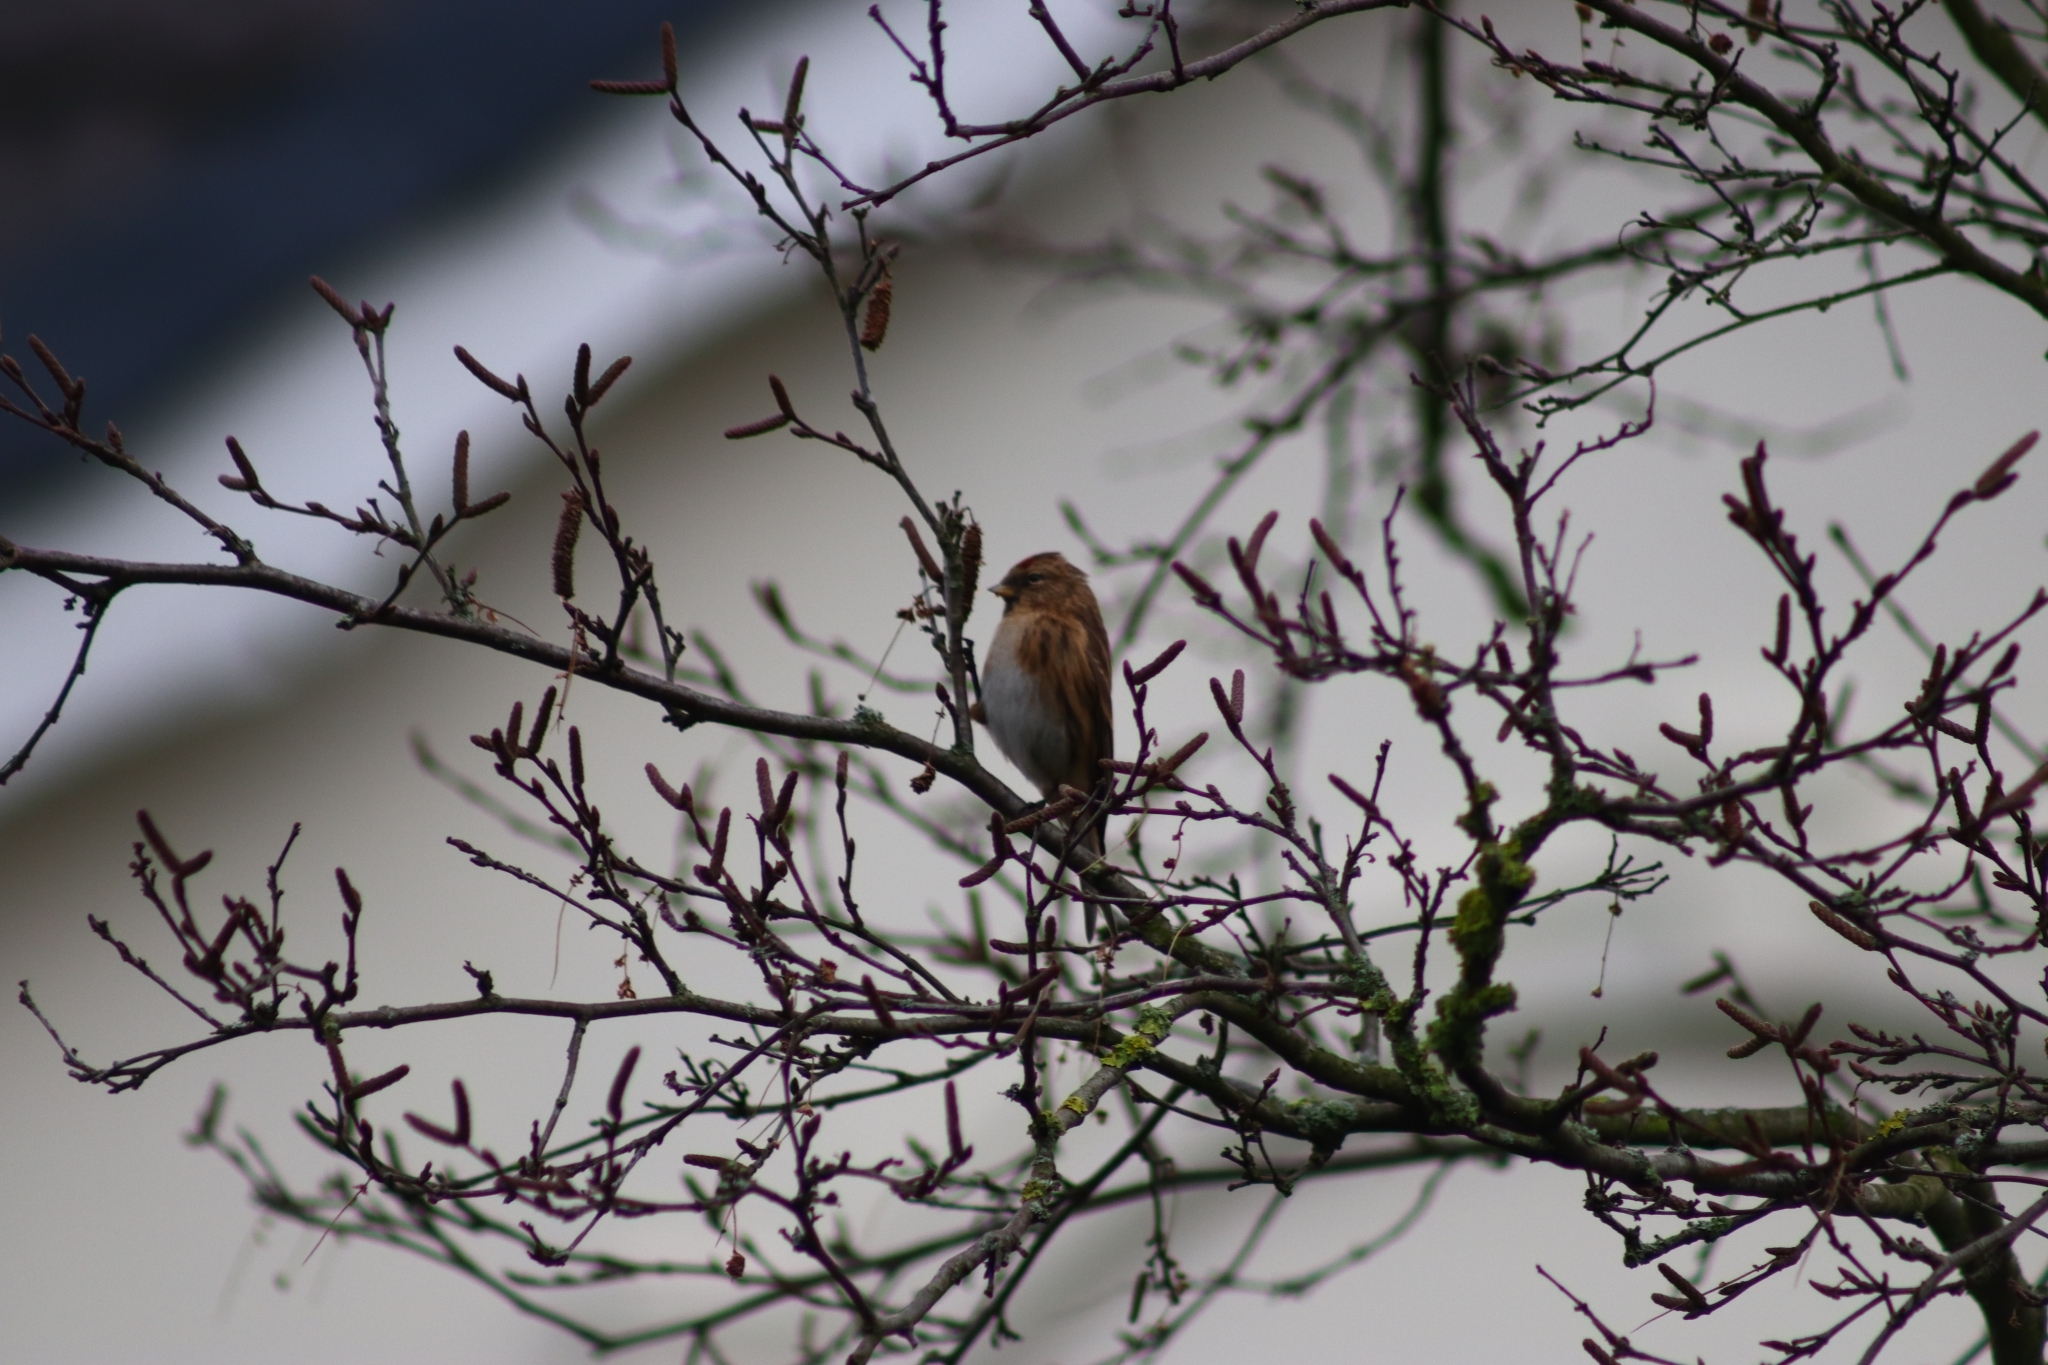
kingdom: Animalia
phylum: Chordata
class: Aves
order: Passeriformes
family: Fringillidae
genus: Acanthis
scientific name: Acanthis flammea
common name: Common redpoll
